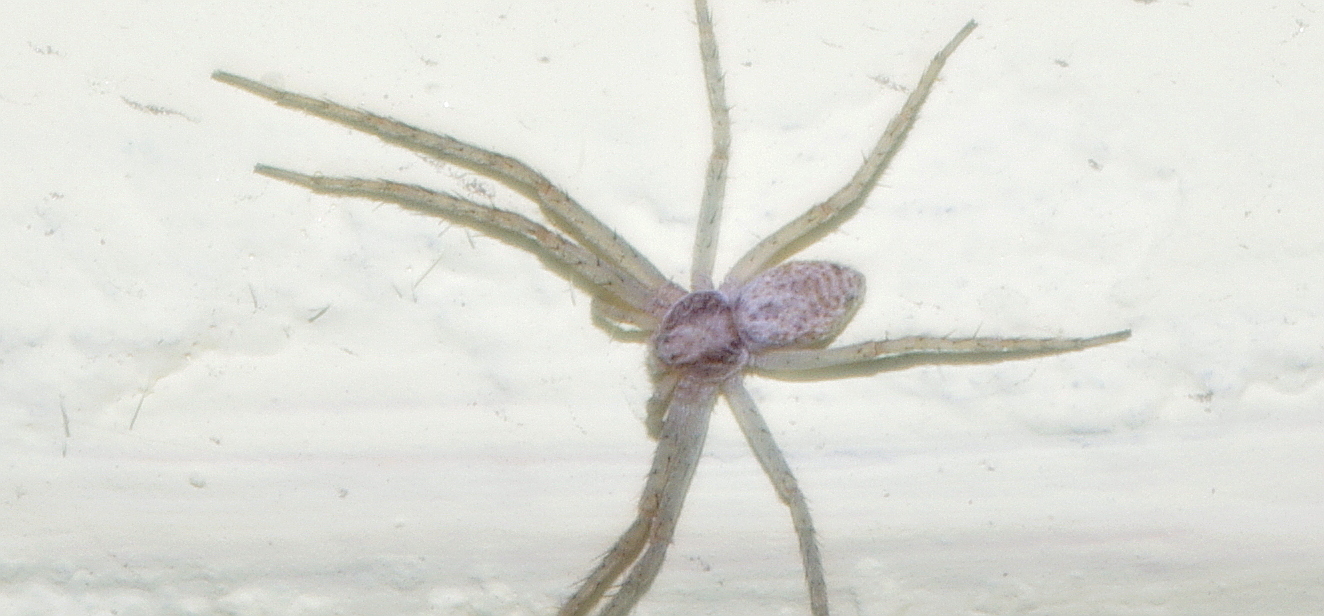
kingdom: Animalia
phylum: Arthropoda
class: Arachnida
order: Araneae
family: Philodromidae
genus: Philodromus
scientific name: Philodromus
